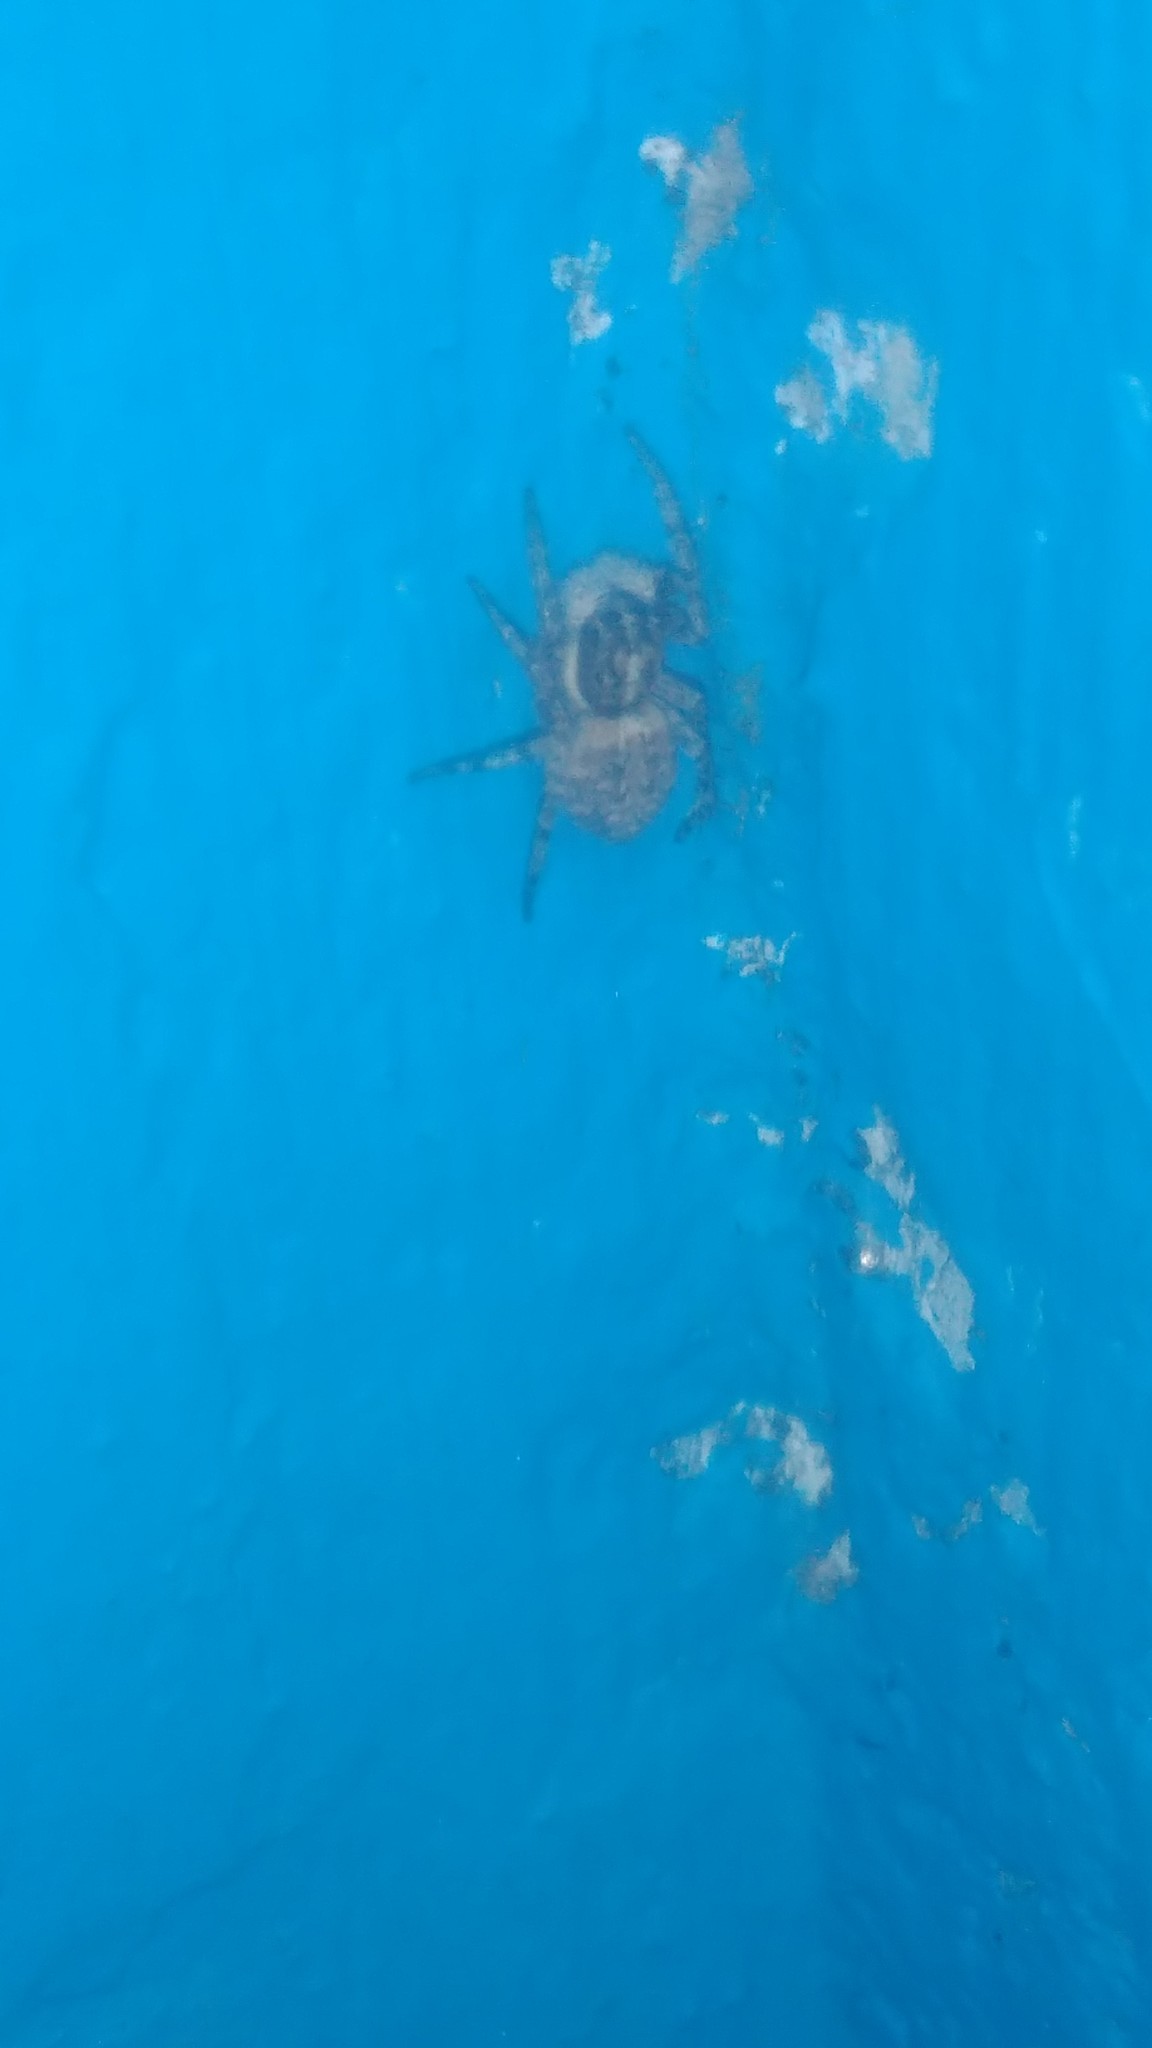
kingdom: Animalia
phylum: Arthropoda
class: Arachnida
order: Araneae
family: Salticidae
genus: Menemerus
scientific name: Menemerus semilimbatus
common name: Jumping spider
